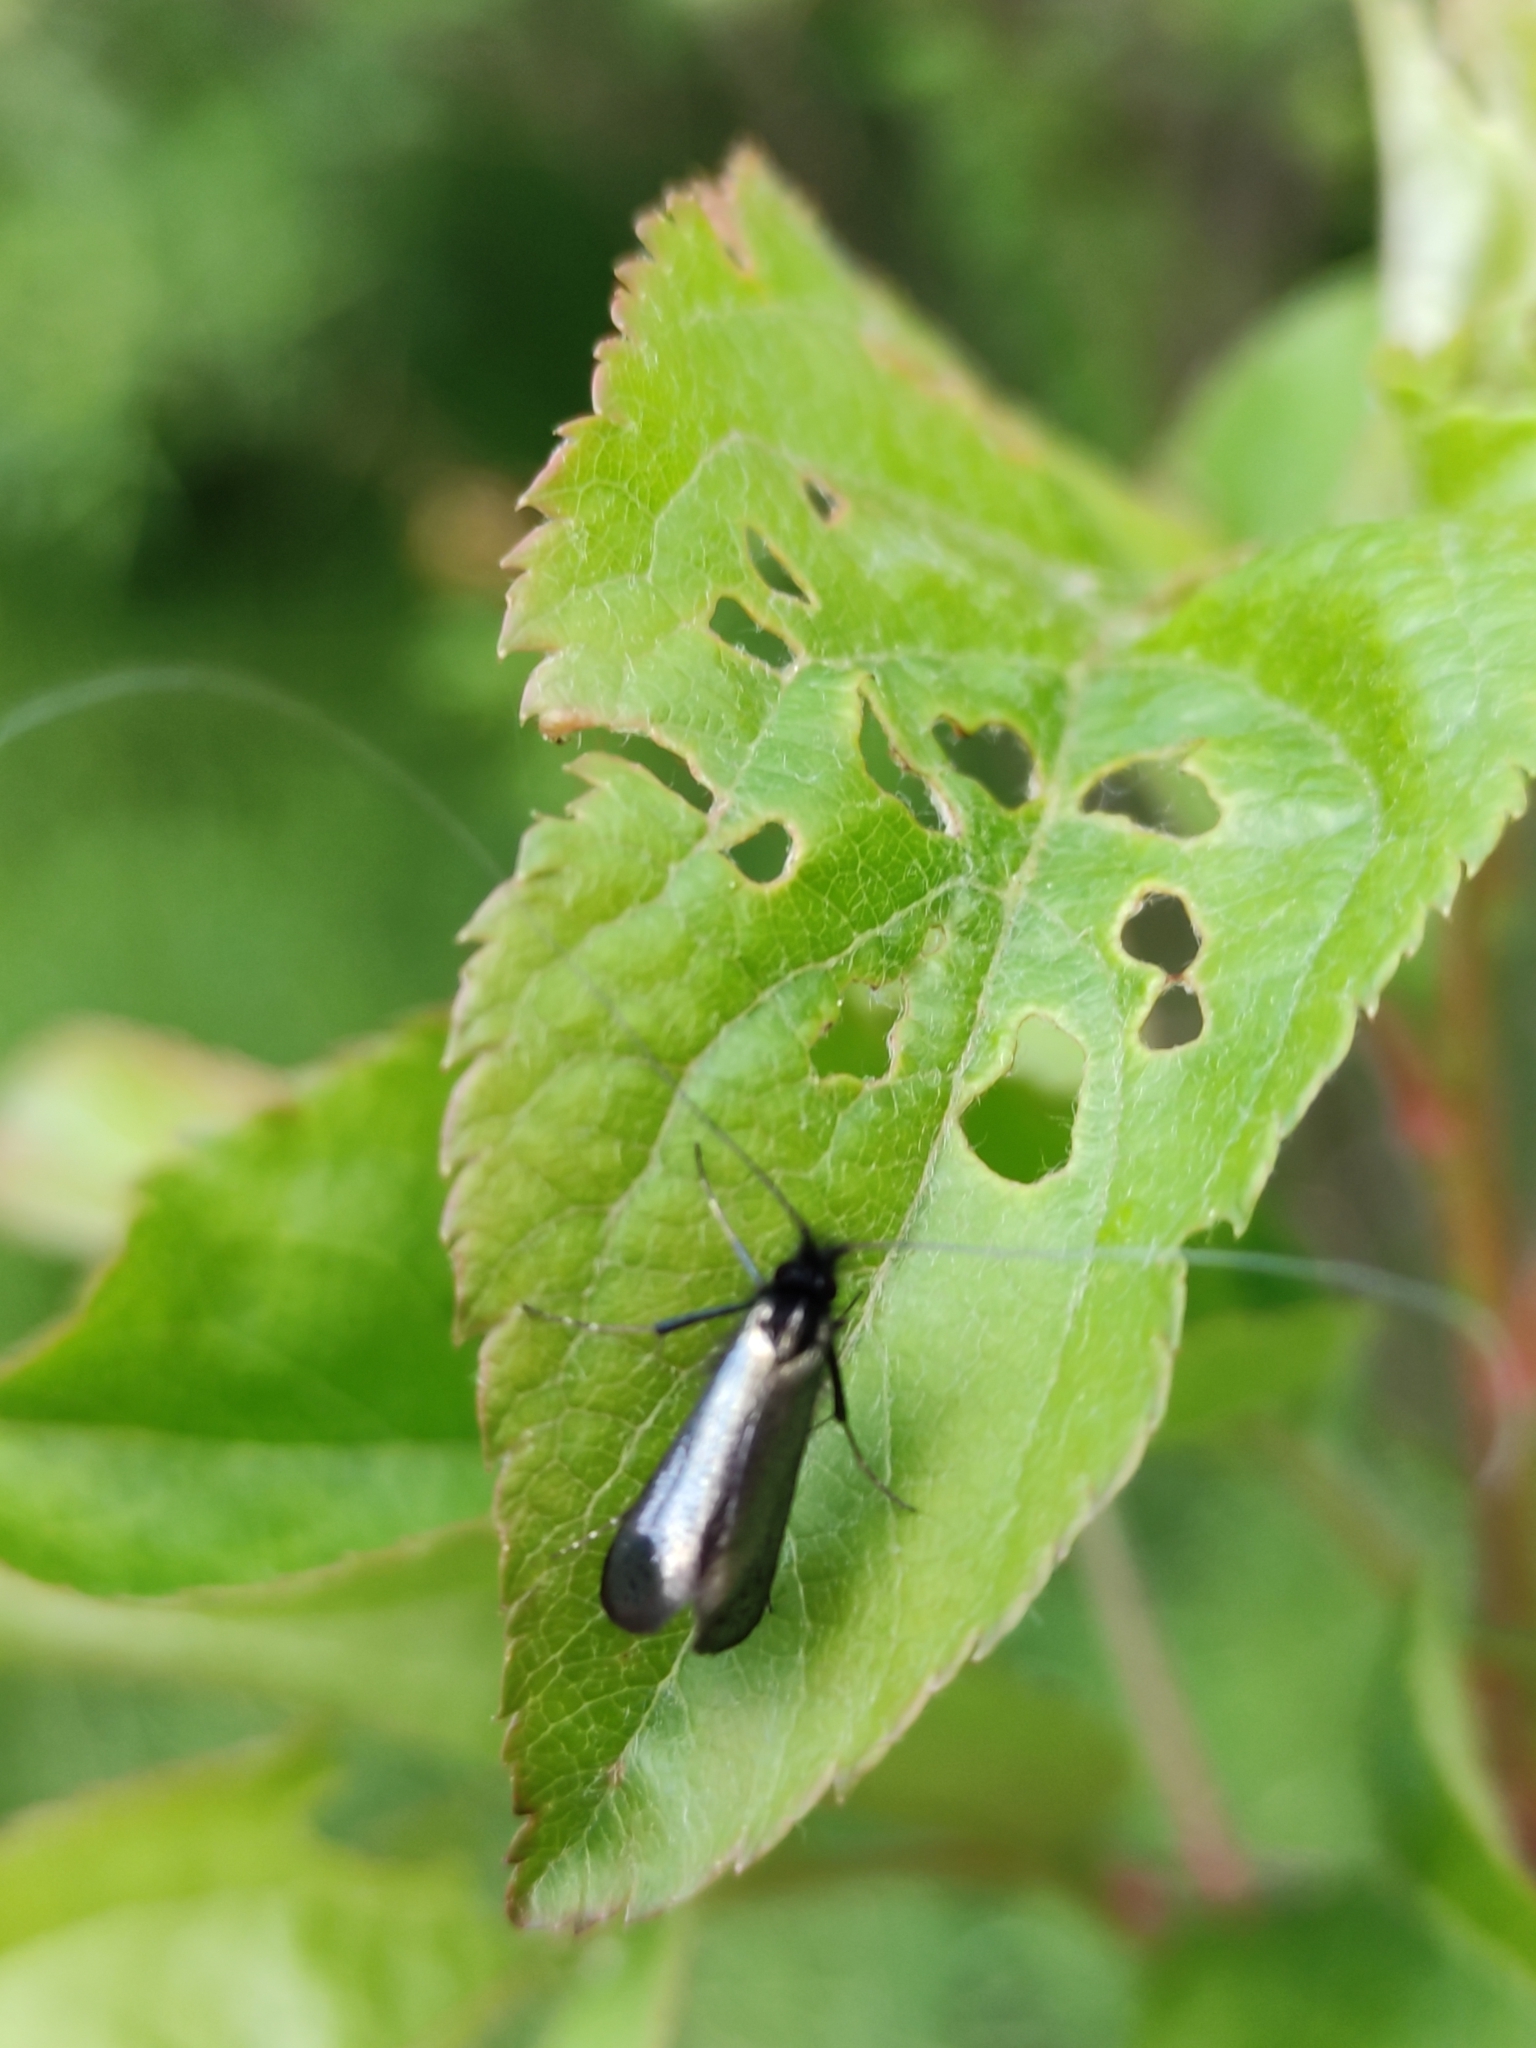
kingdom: Animalia
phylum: Arthropoda
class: Insecta
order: Lepidoptera
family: Adelidae
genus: Adela
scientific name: Adela viridella
